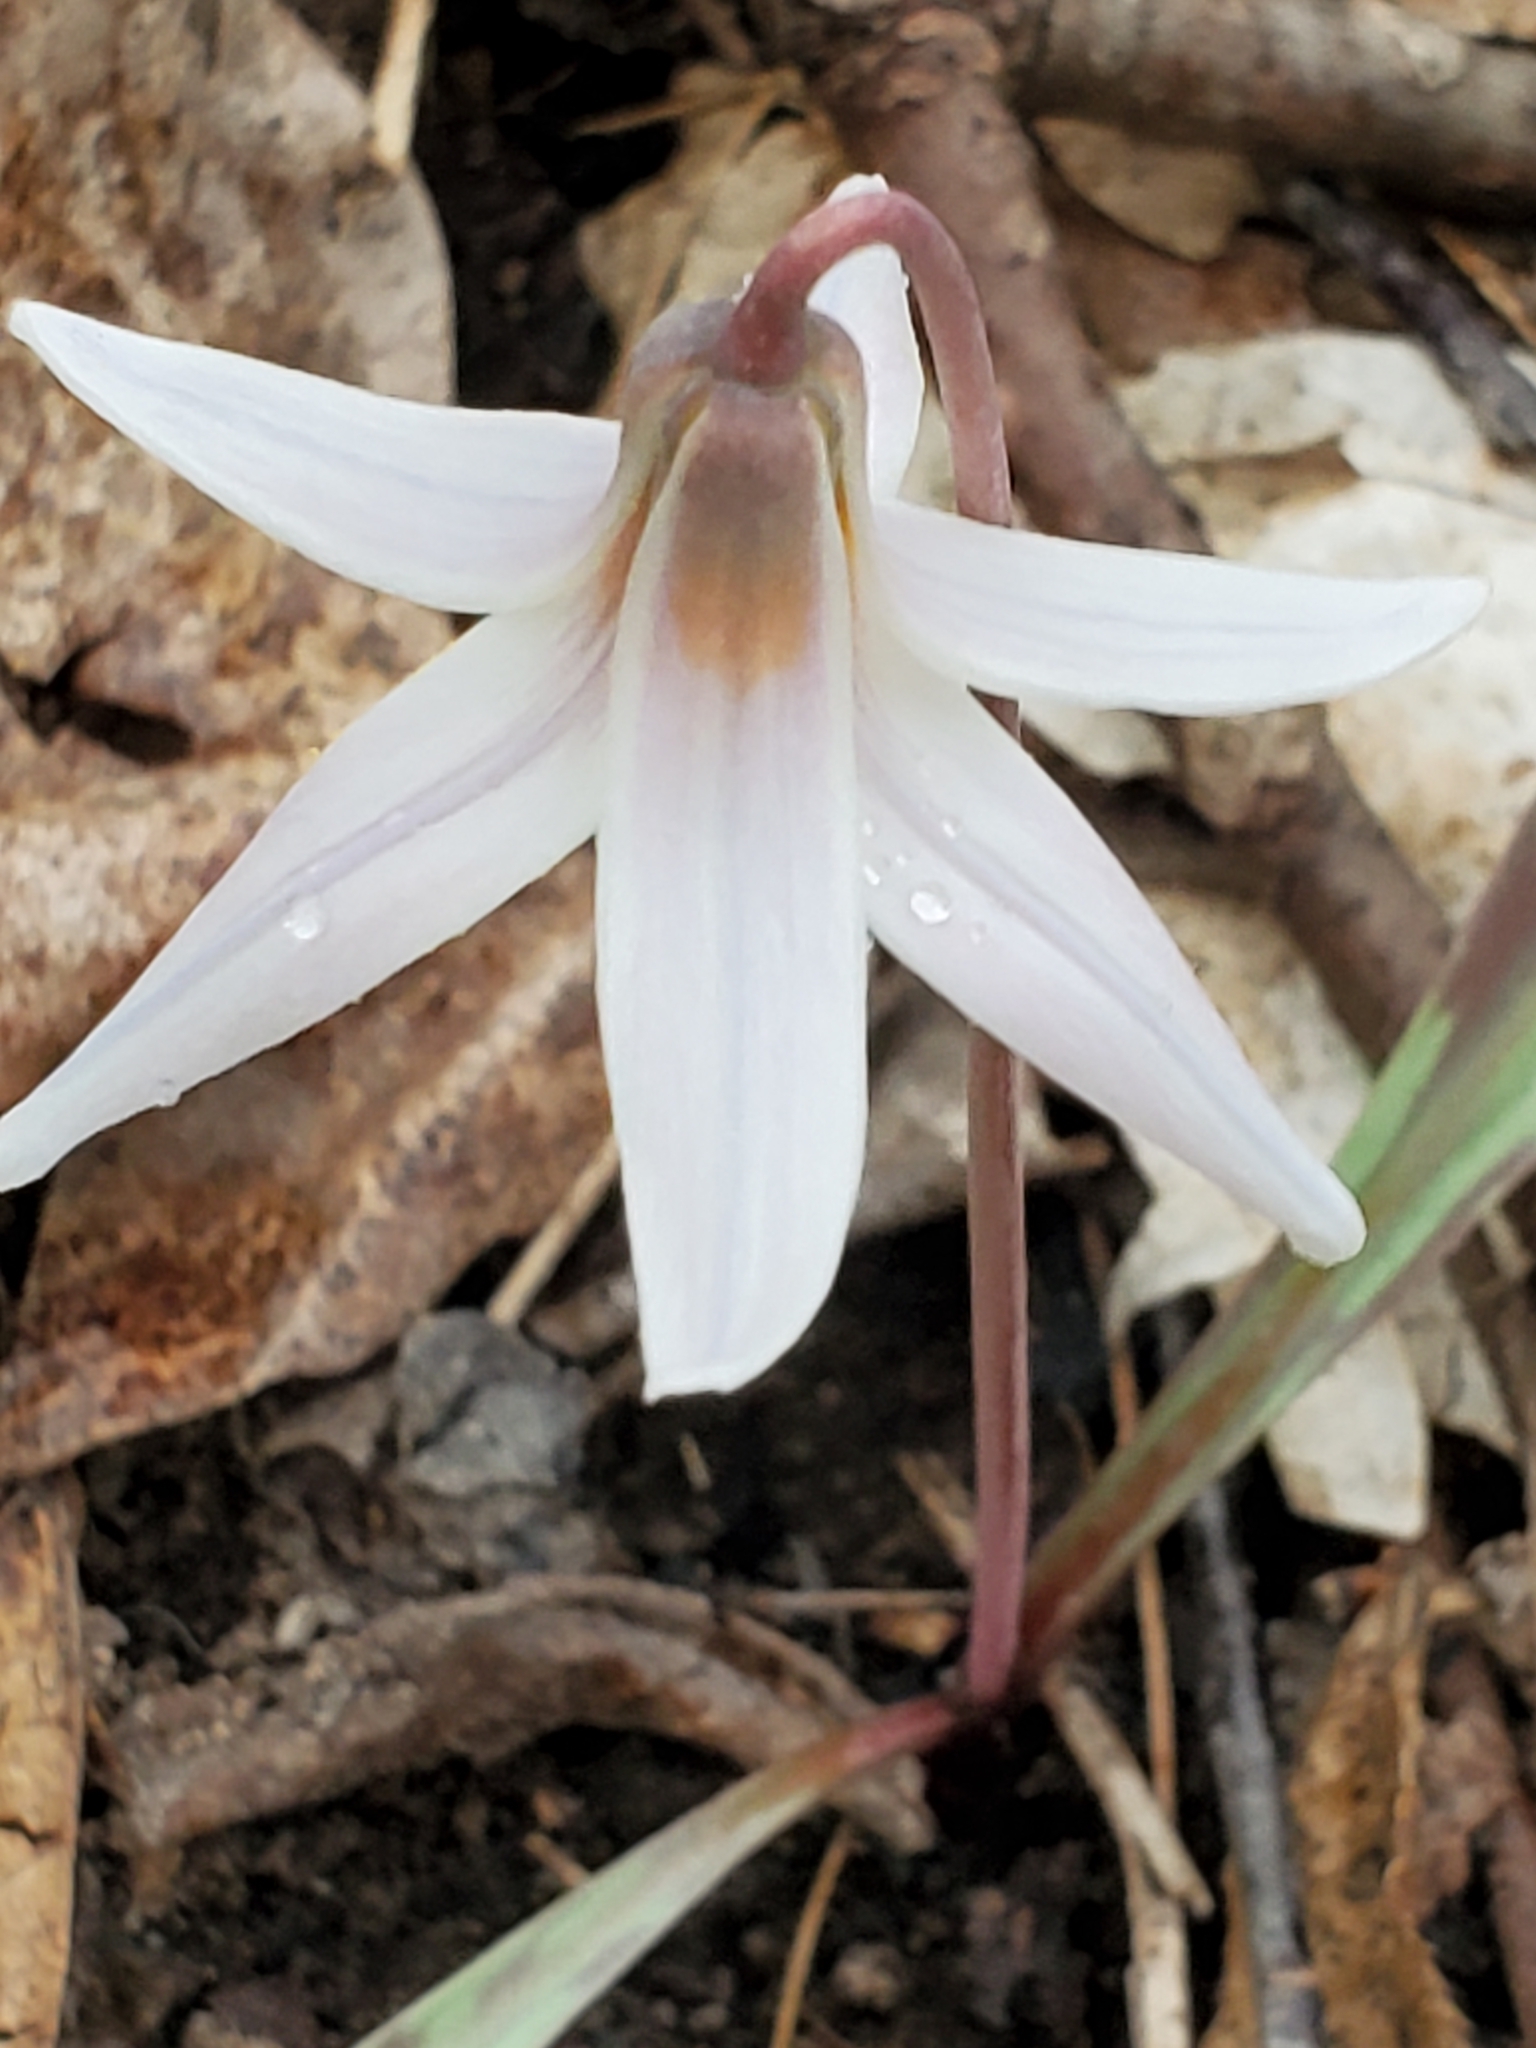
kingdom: Plantae
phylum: Tracheophyta
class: Liliopsida
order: Liliales
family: Liliaceae
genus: Erythronium
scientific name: Erythronium albidum
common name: White trout-lily
